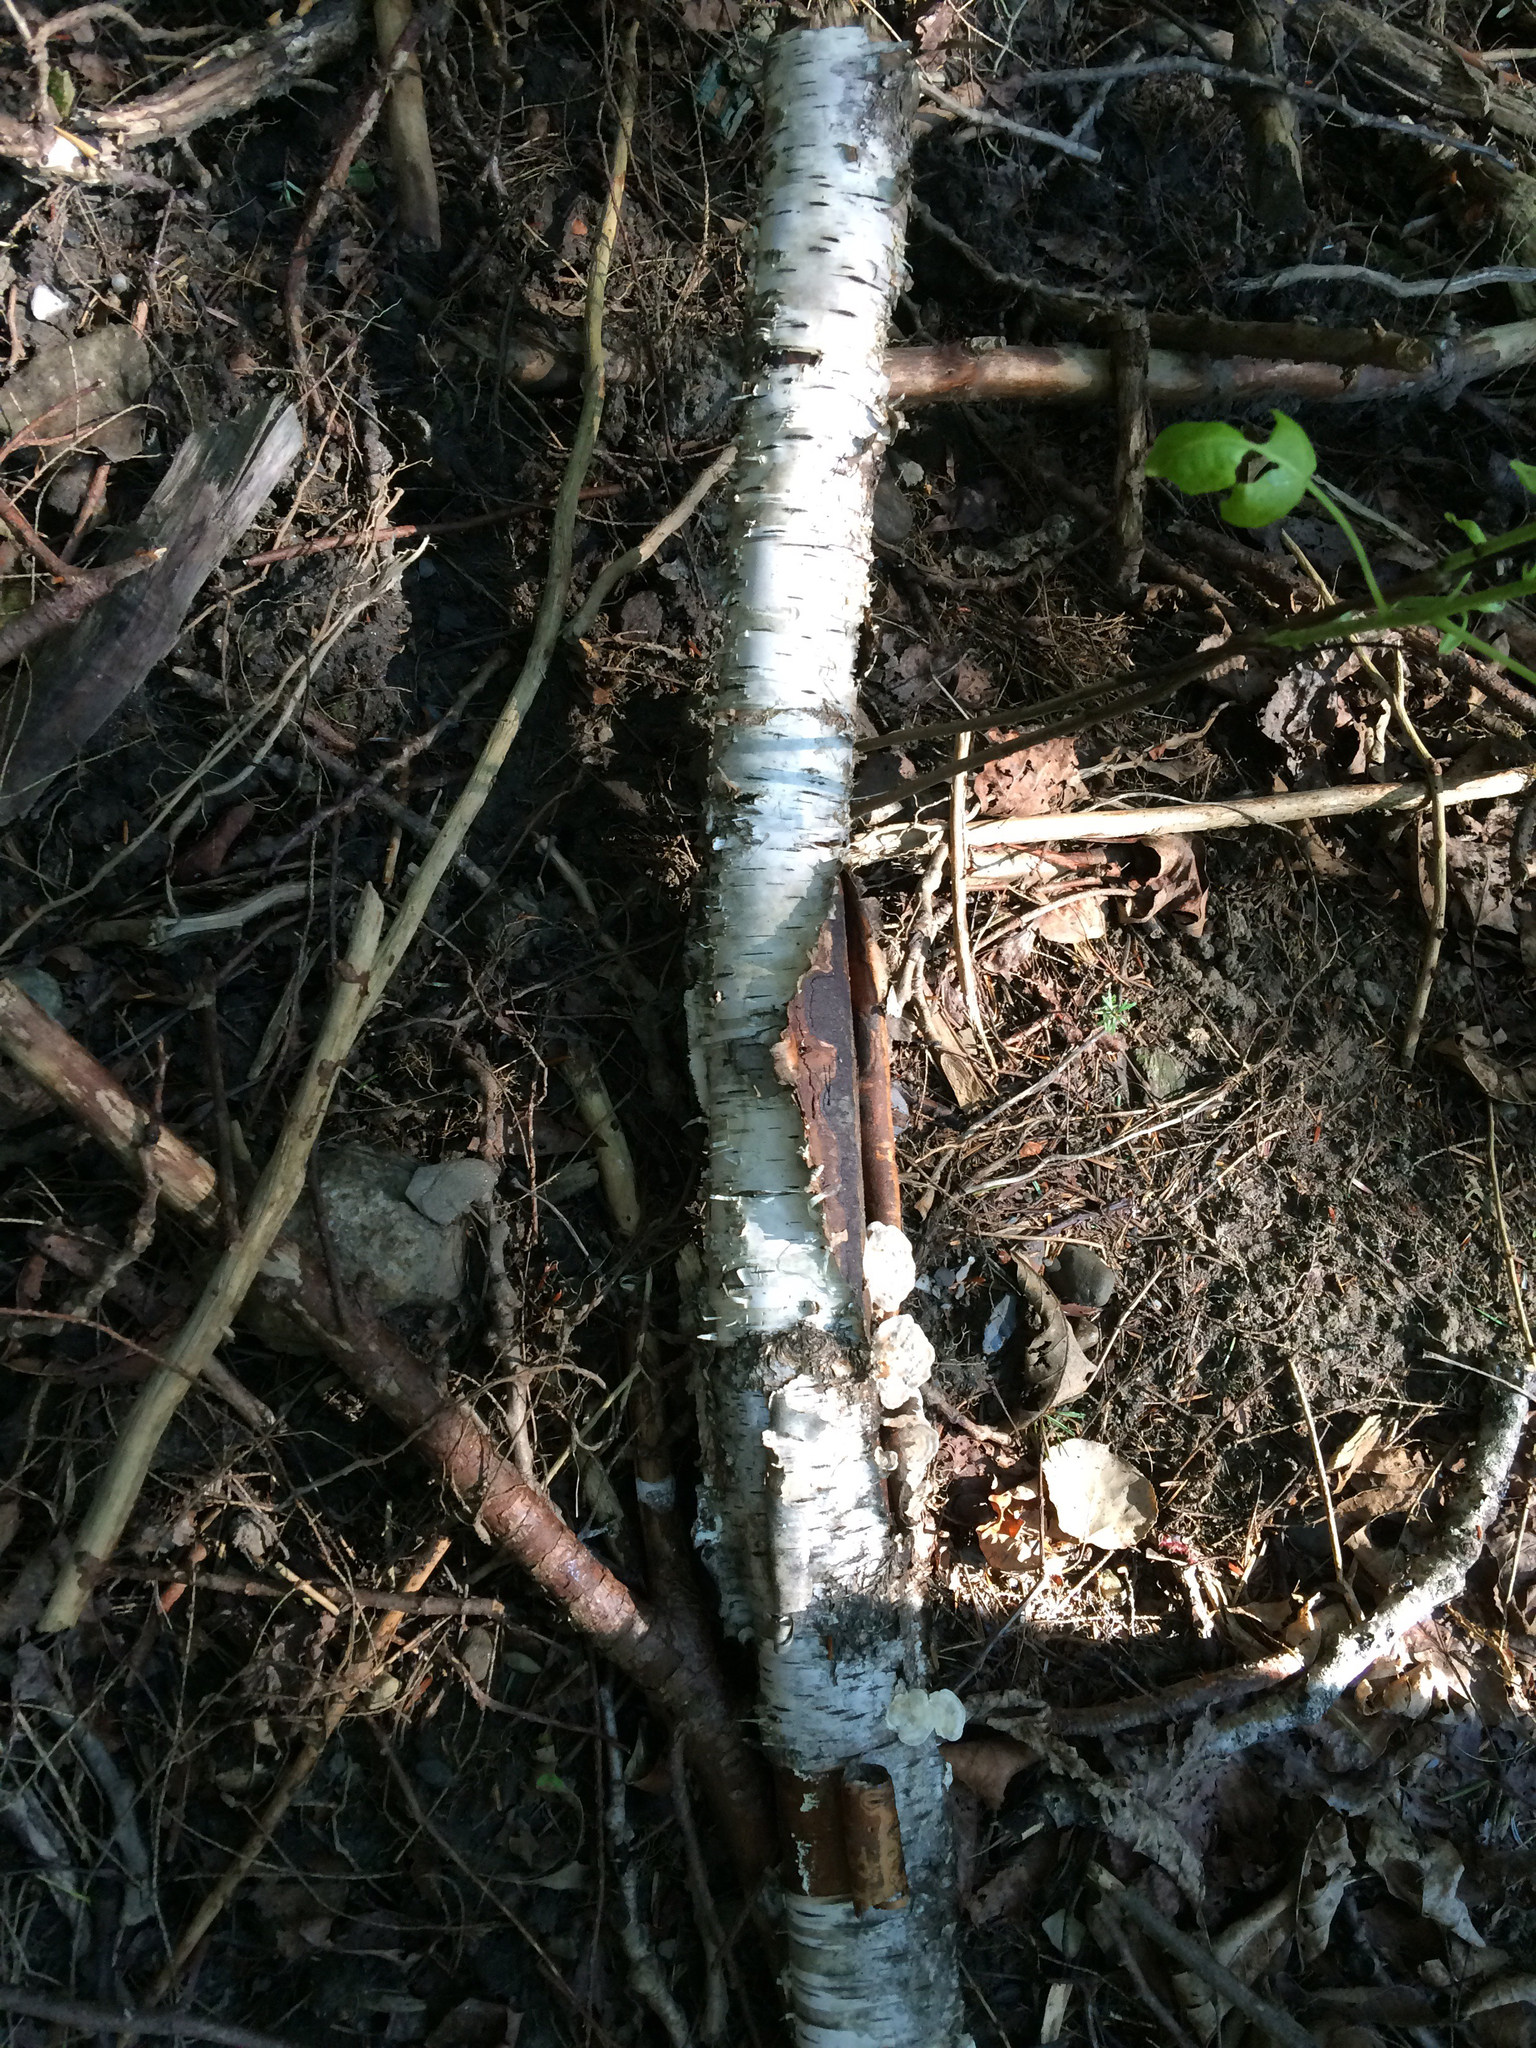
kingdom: Plantae
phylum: Tracheophyta
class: Magnoliopsida
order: Fagales
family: Betulaceae
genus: Betula
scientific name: Betula papyrifera
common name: Paper birch
